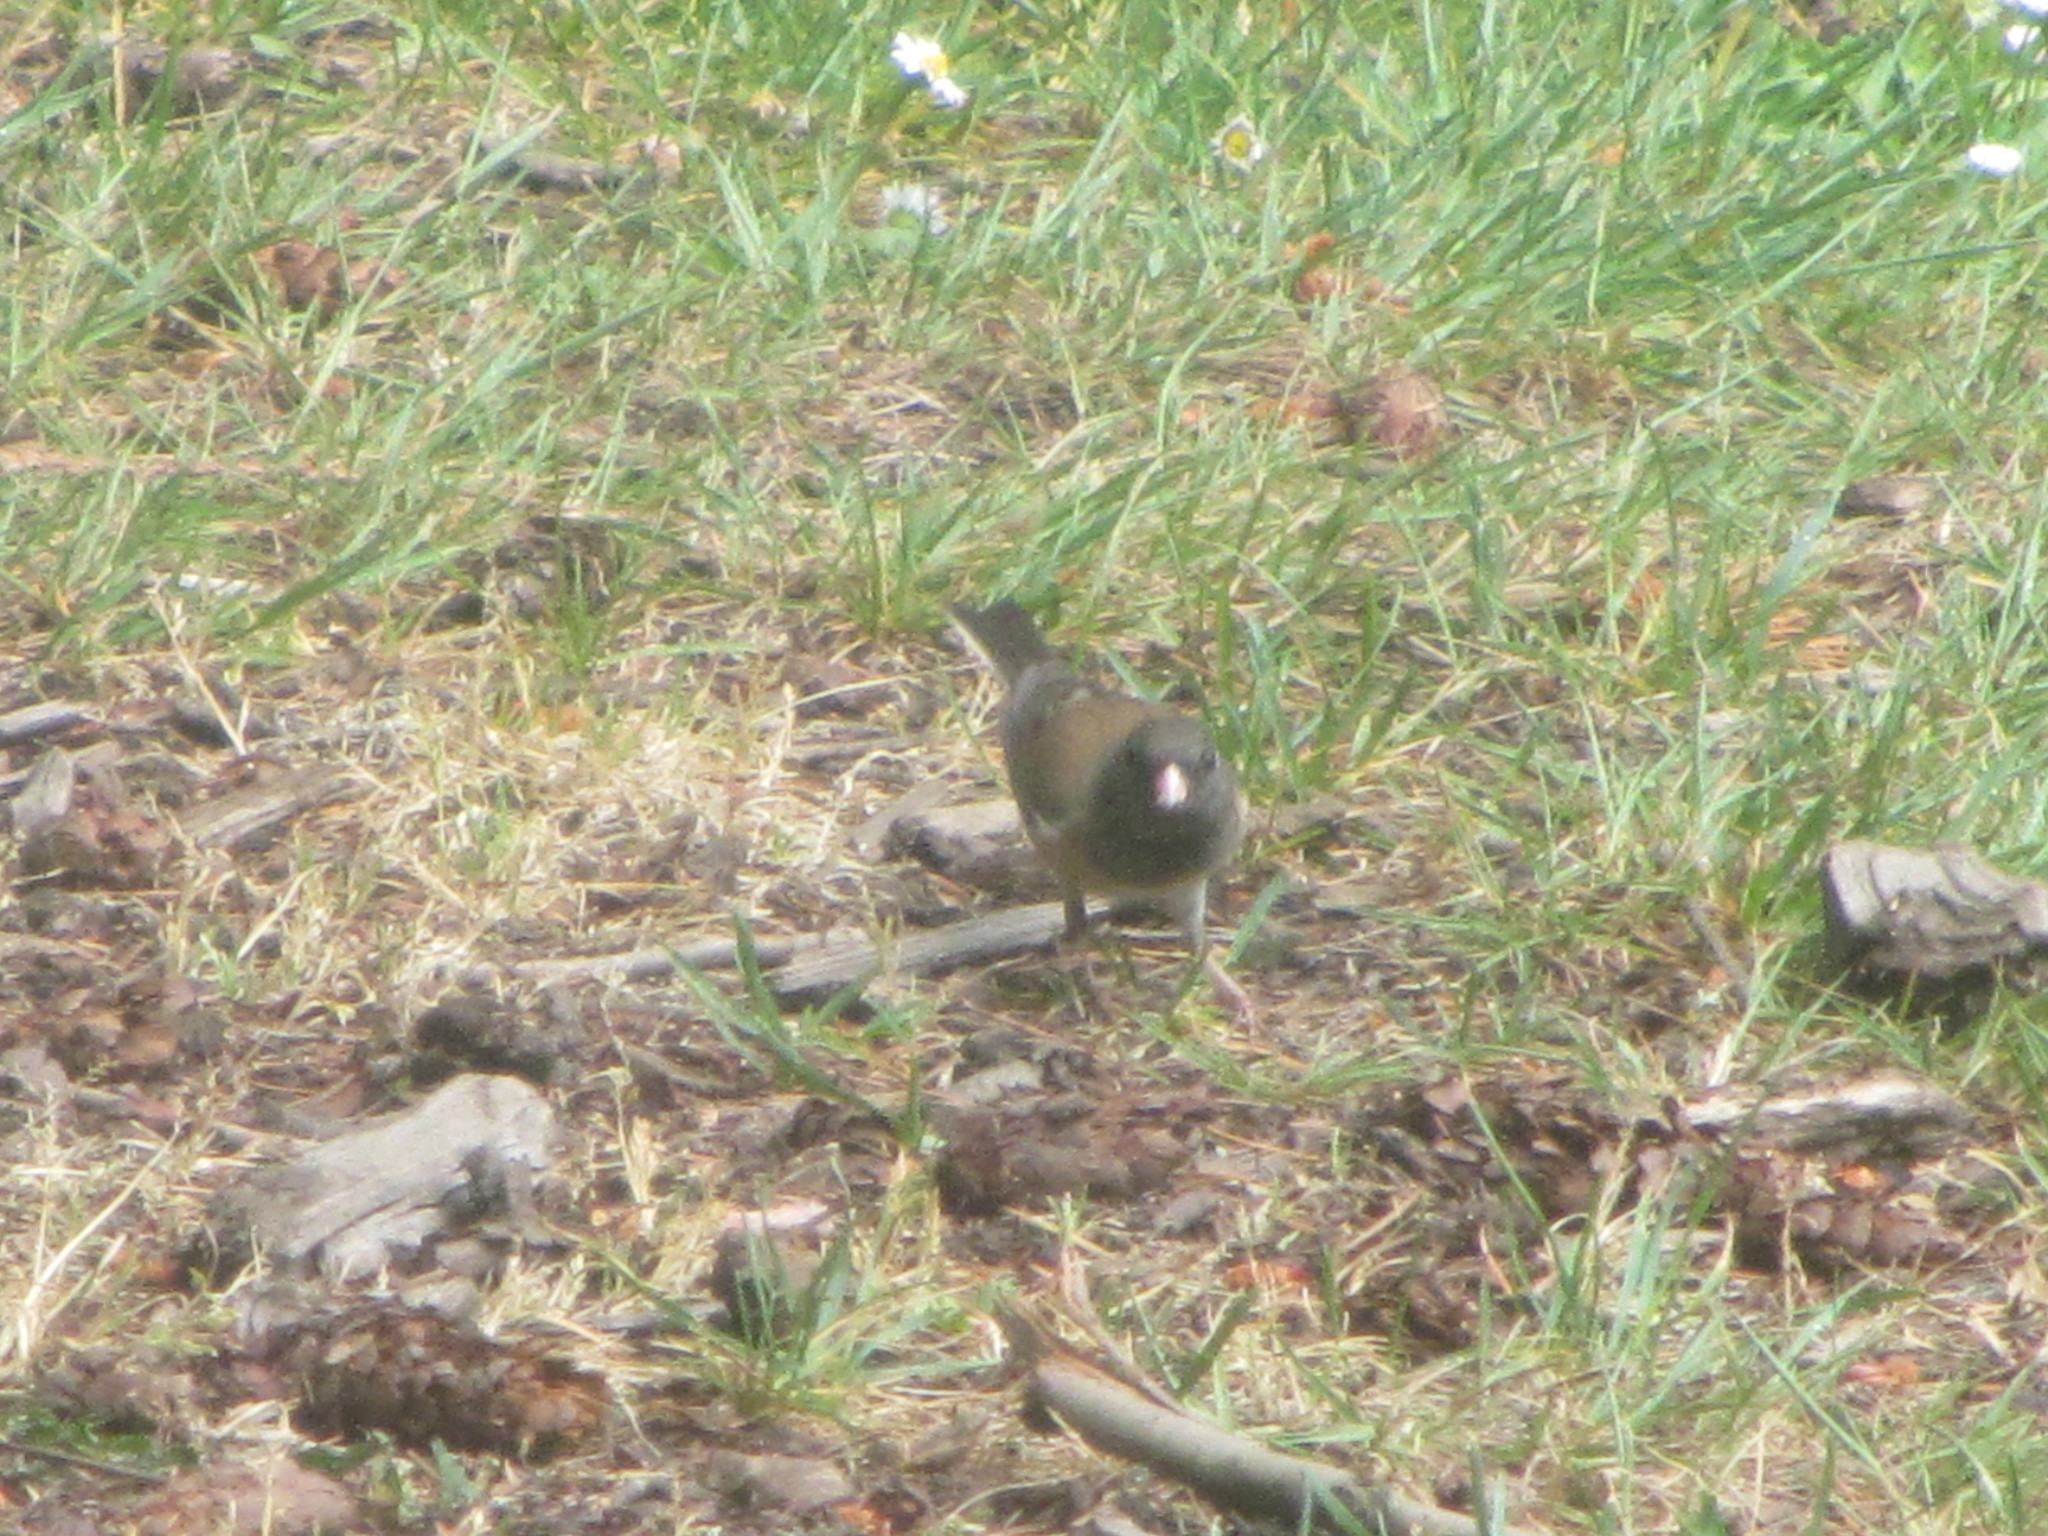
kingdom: Animalia
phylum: Chordata
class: Aves
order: Passeriformes
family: Passerellidae
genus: Junco
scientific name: Junco hyemalis
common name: Dark-eyed junco
